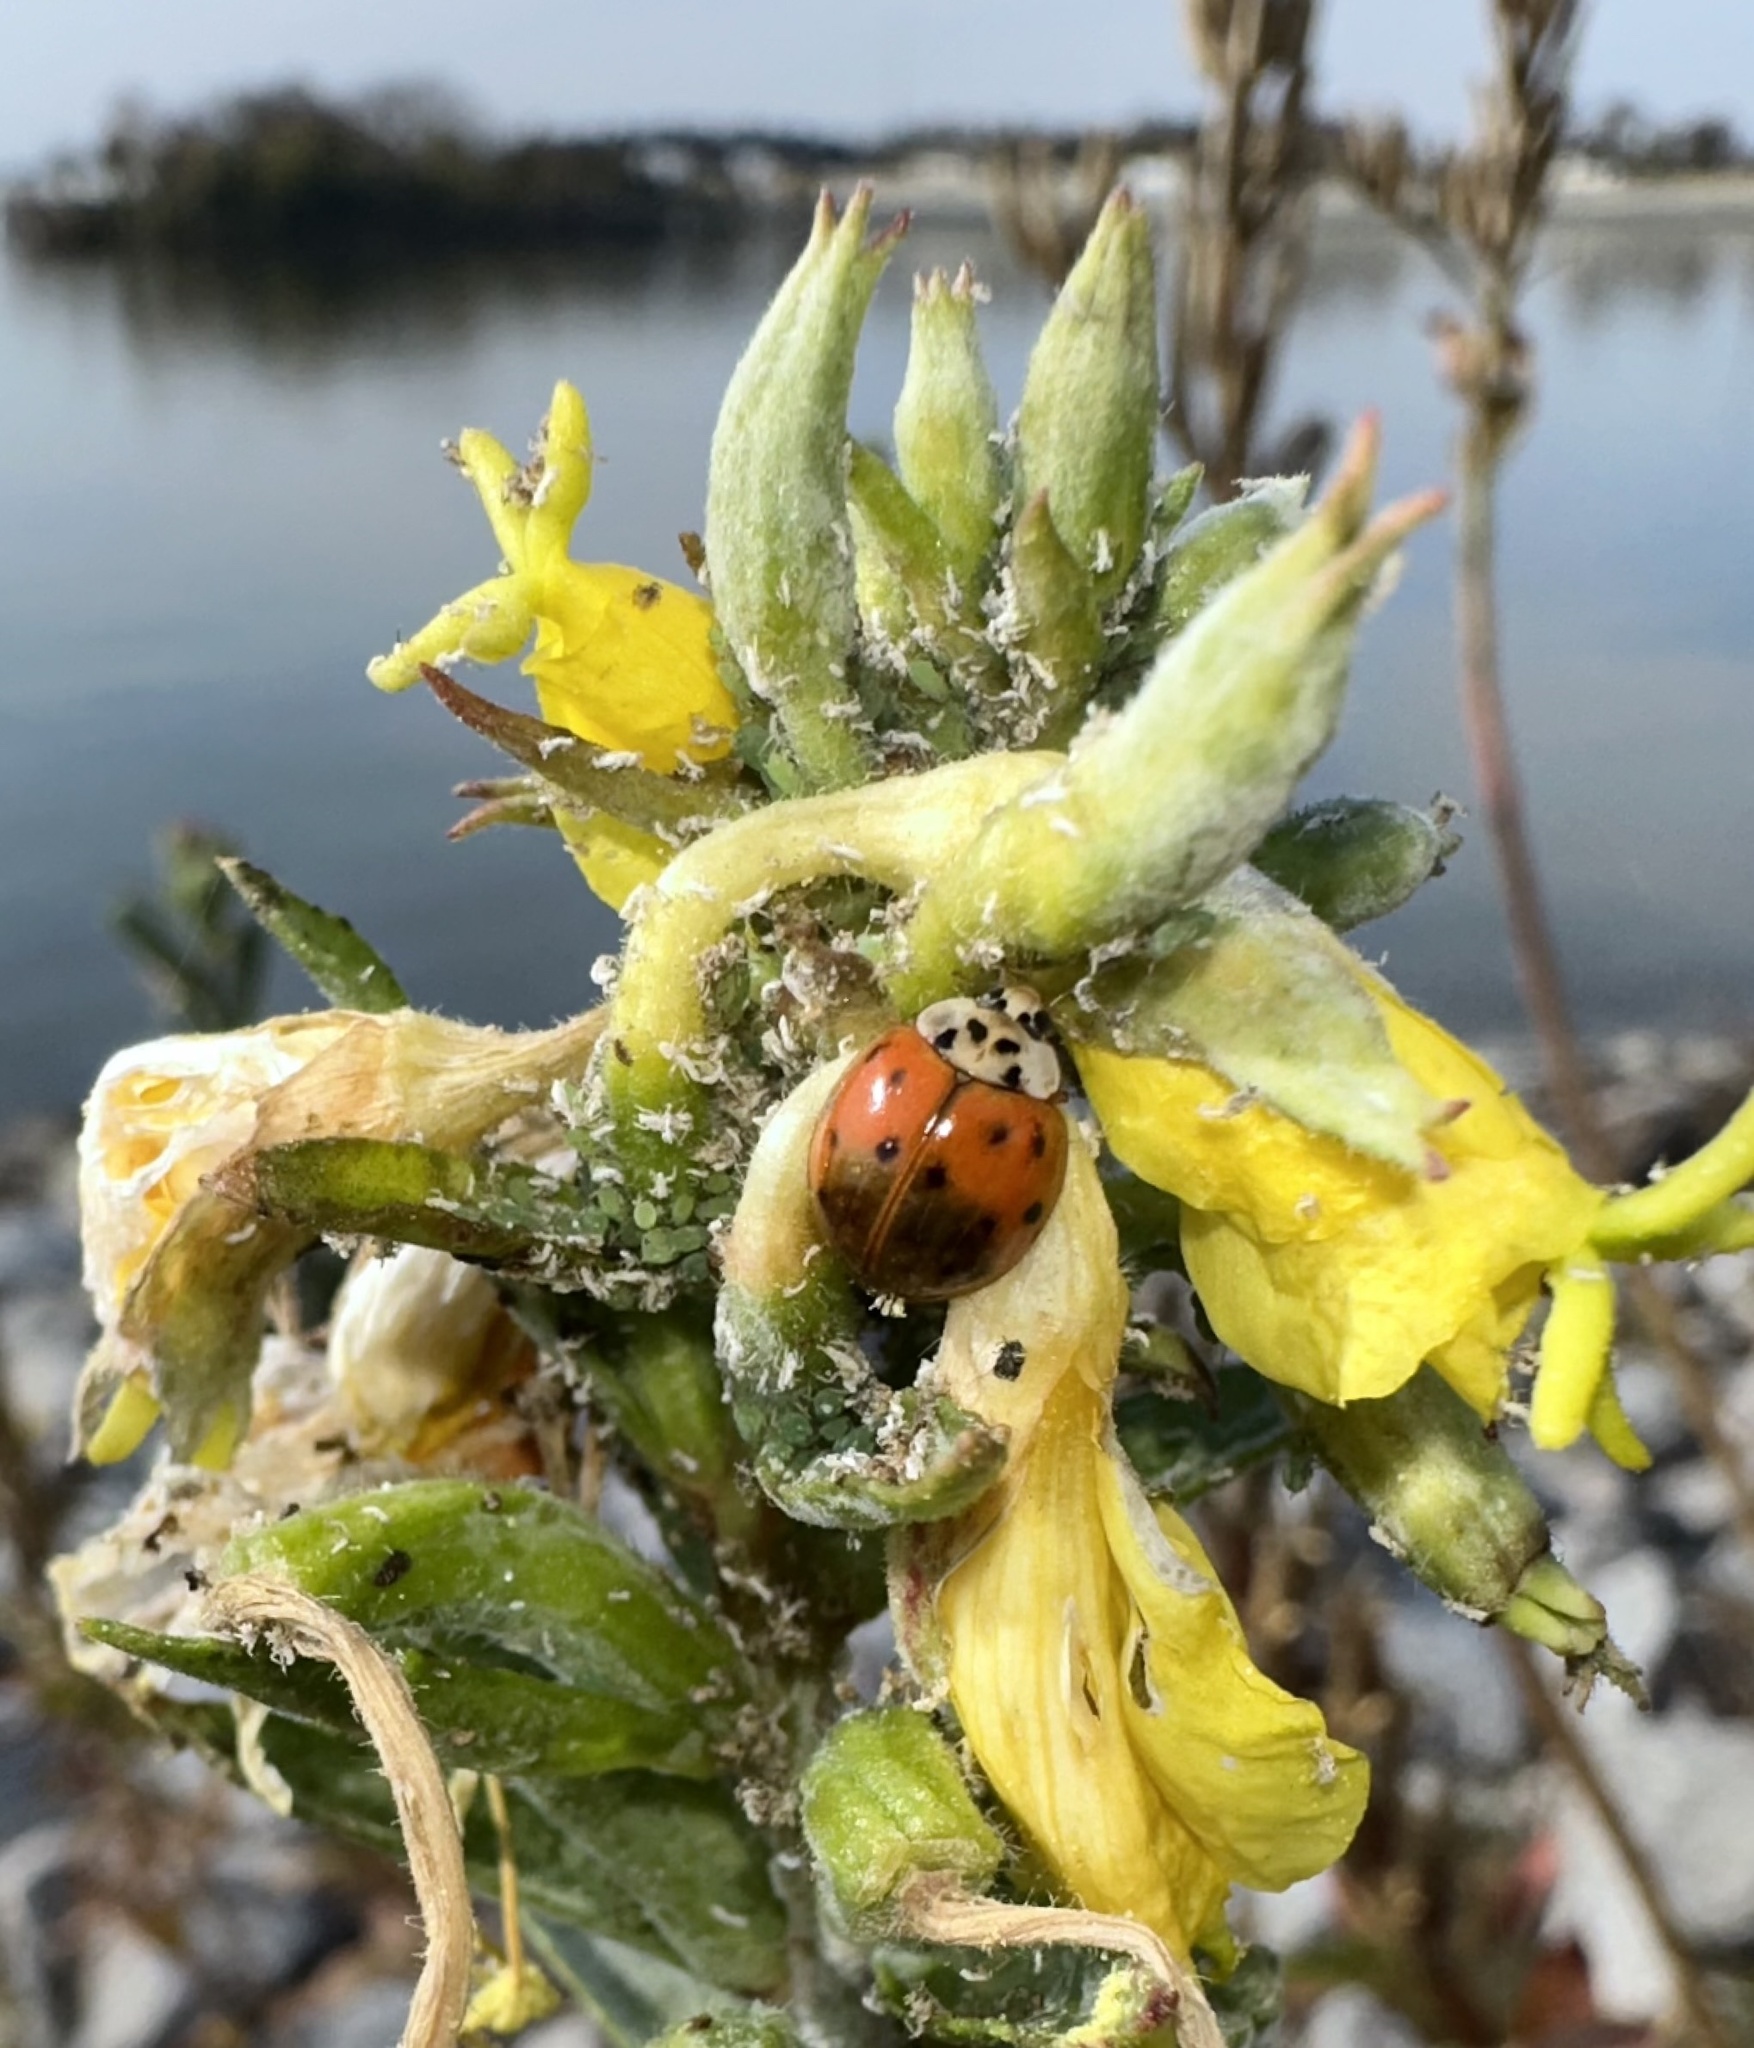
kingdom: Animalia
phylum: Arthropoda
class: Insecta
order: Coleoptera
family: Coccinellidae
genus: Harmonia
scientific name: Harmonia axyridis
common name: Harlequin ladybird
